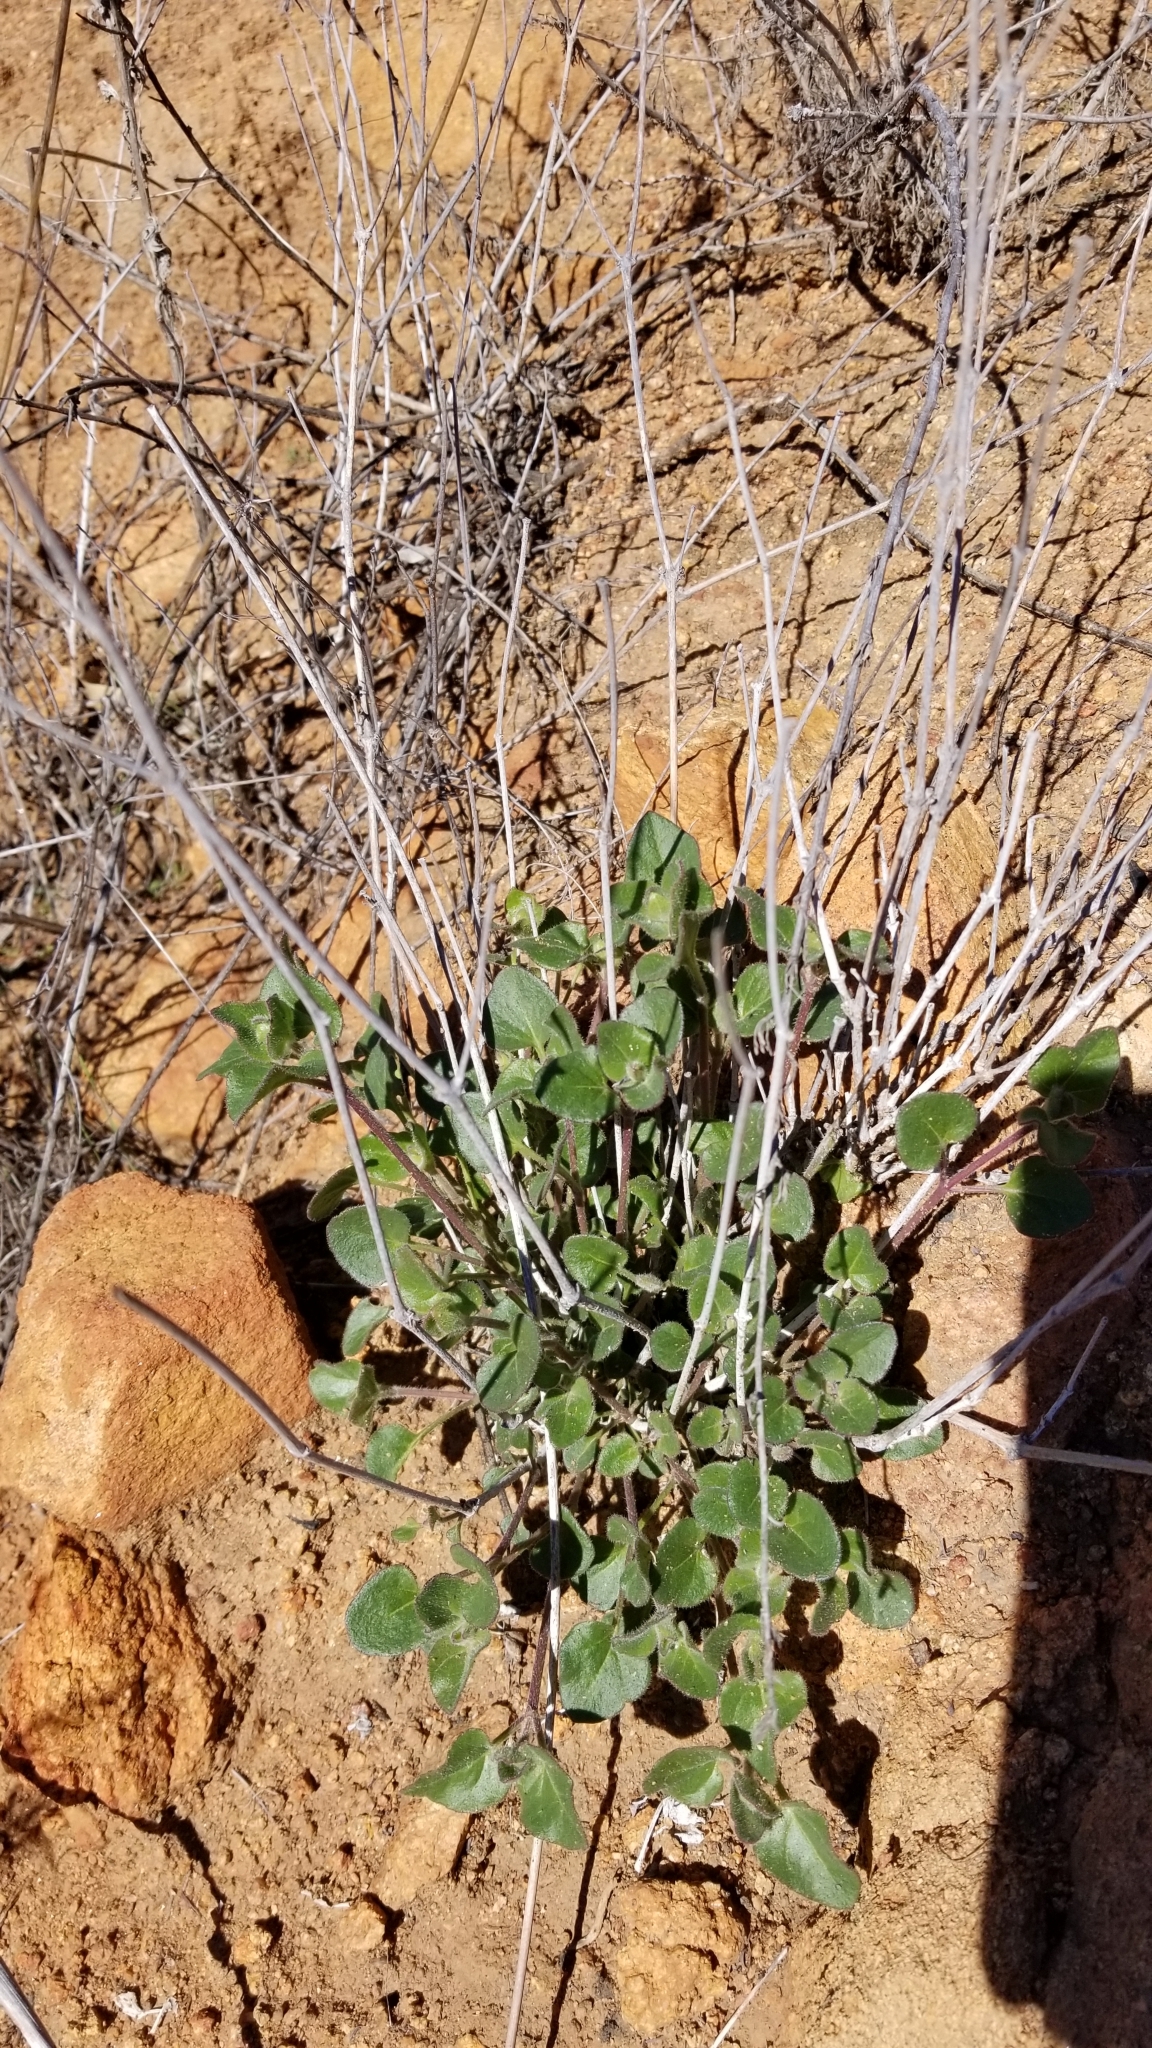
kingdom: Plantae
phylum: Tracheophyta
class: Magnoliopsida
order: Caryophyllales
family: Nyctaginaceae
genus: Mirabilis
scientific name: Mirabilis laevis
